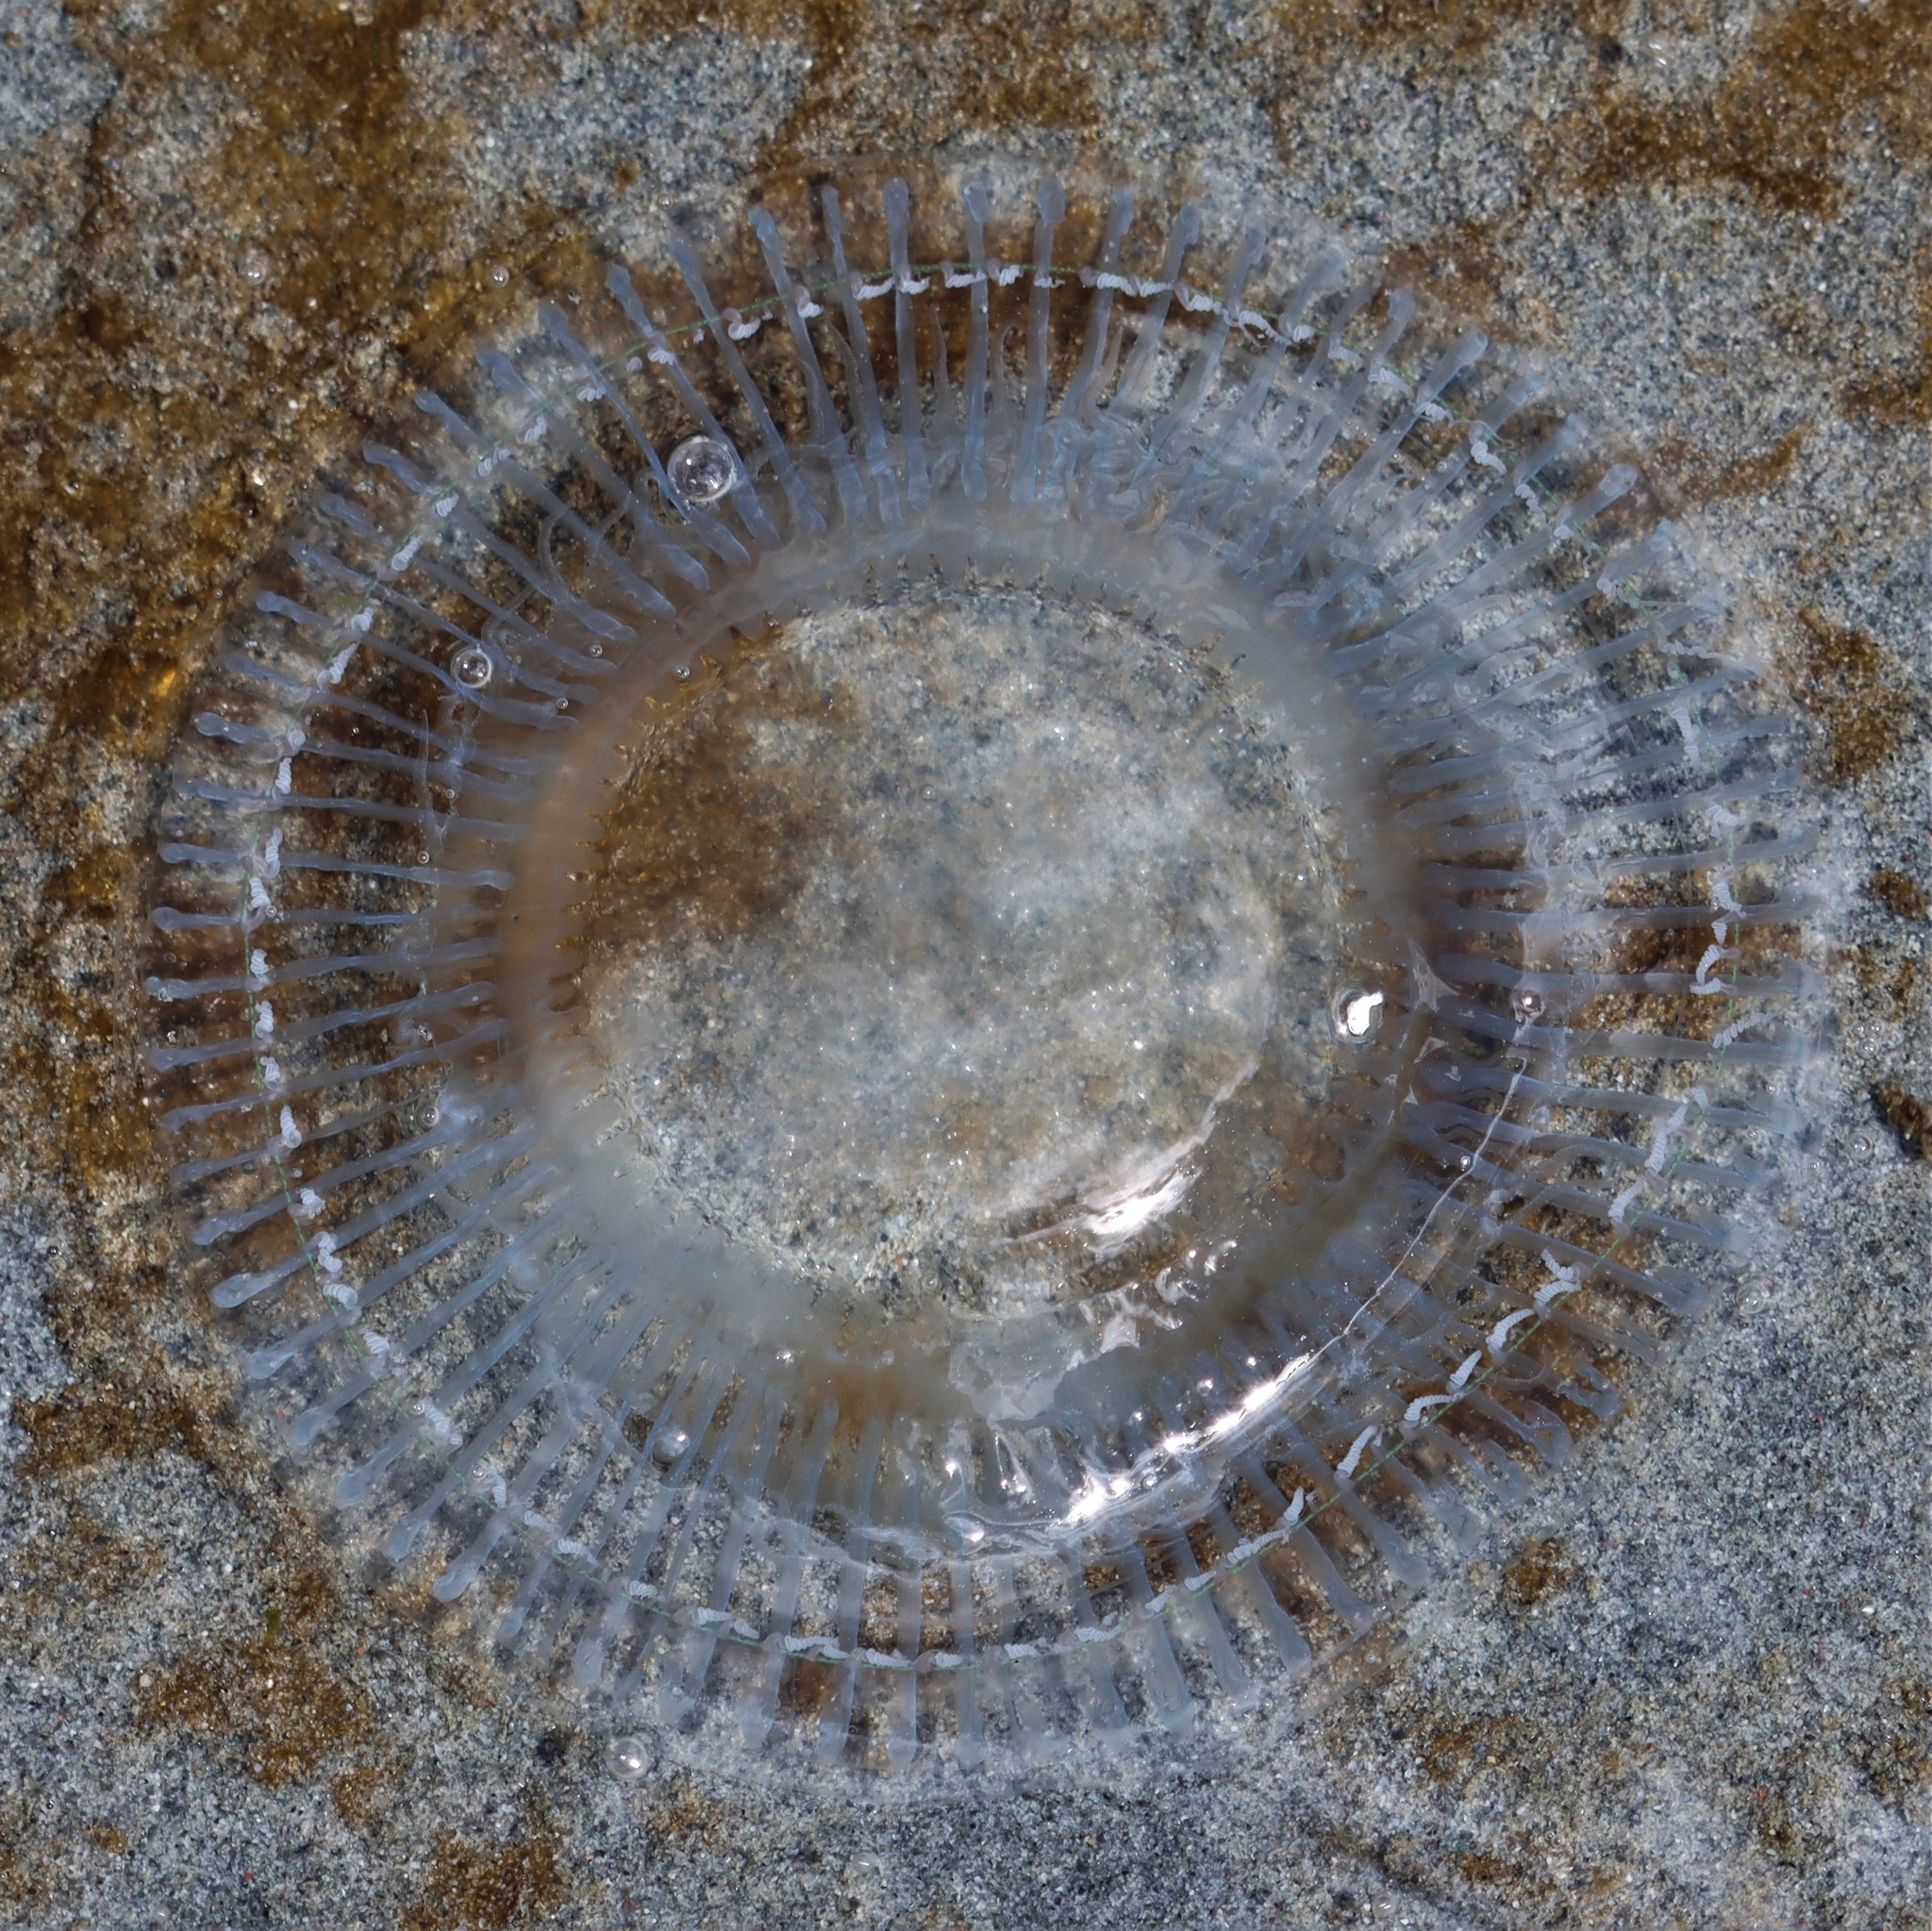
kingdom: Animalia
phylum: Cnidaria
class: Hydrozoa
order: Leptothecata
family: Aequoreidae
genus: Aequorea
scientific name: Aequorea victoria
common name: Water jellyfish
